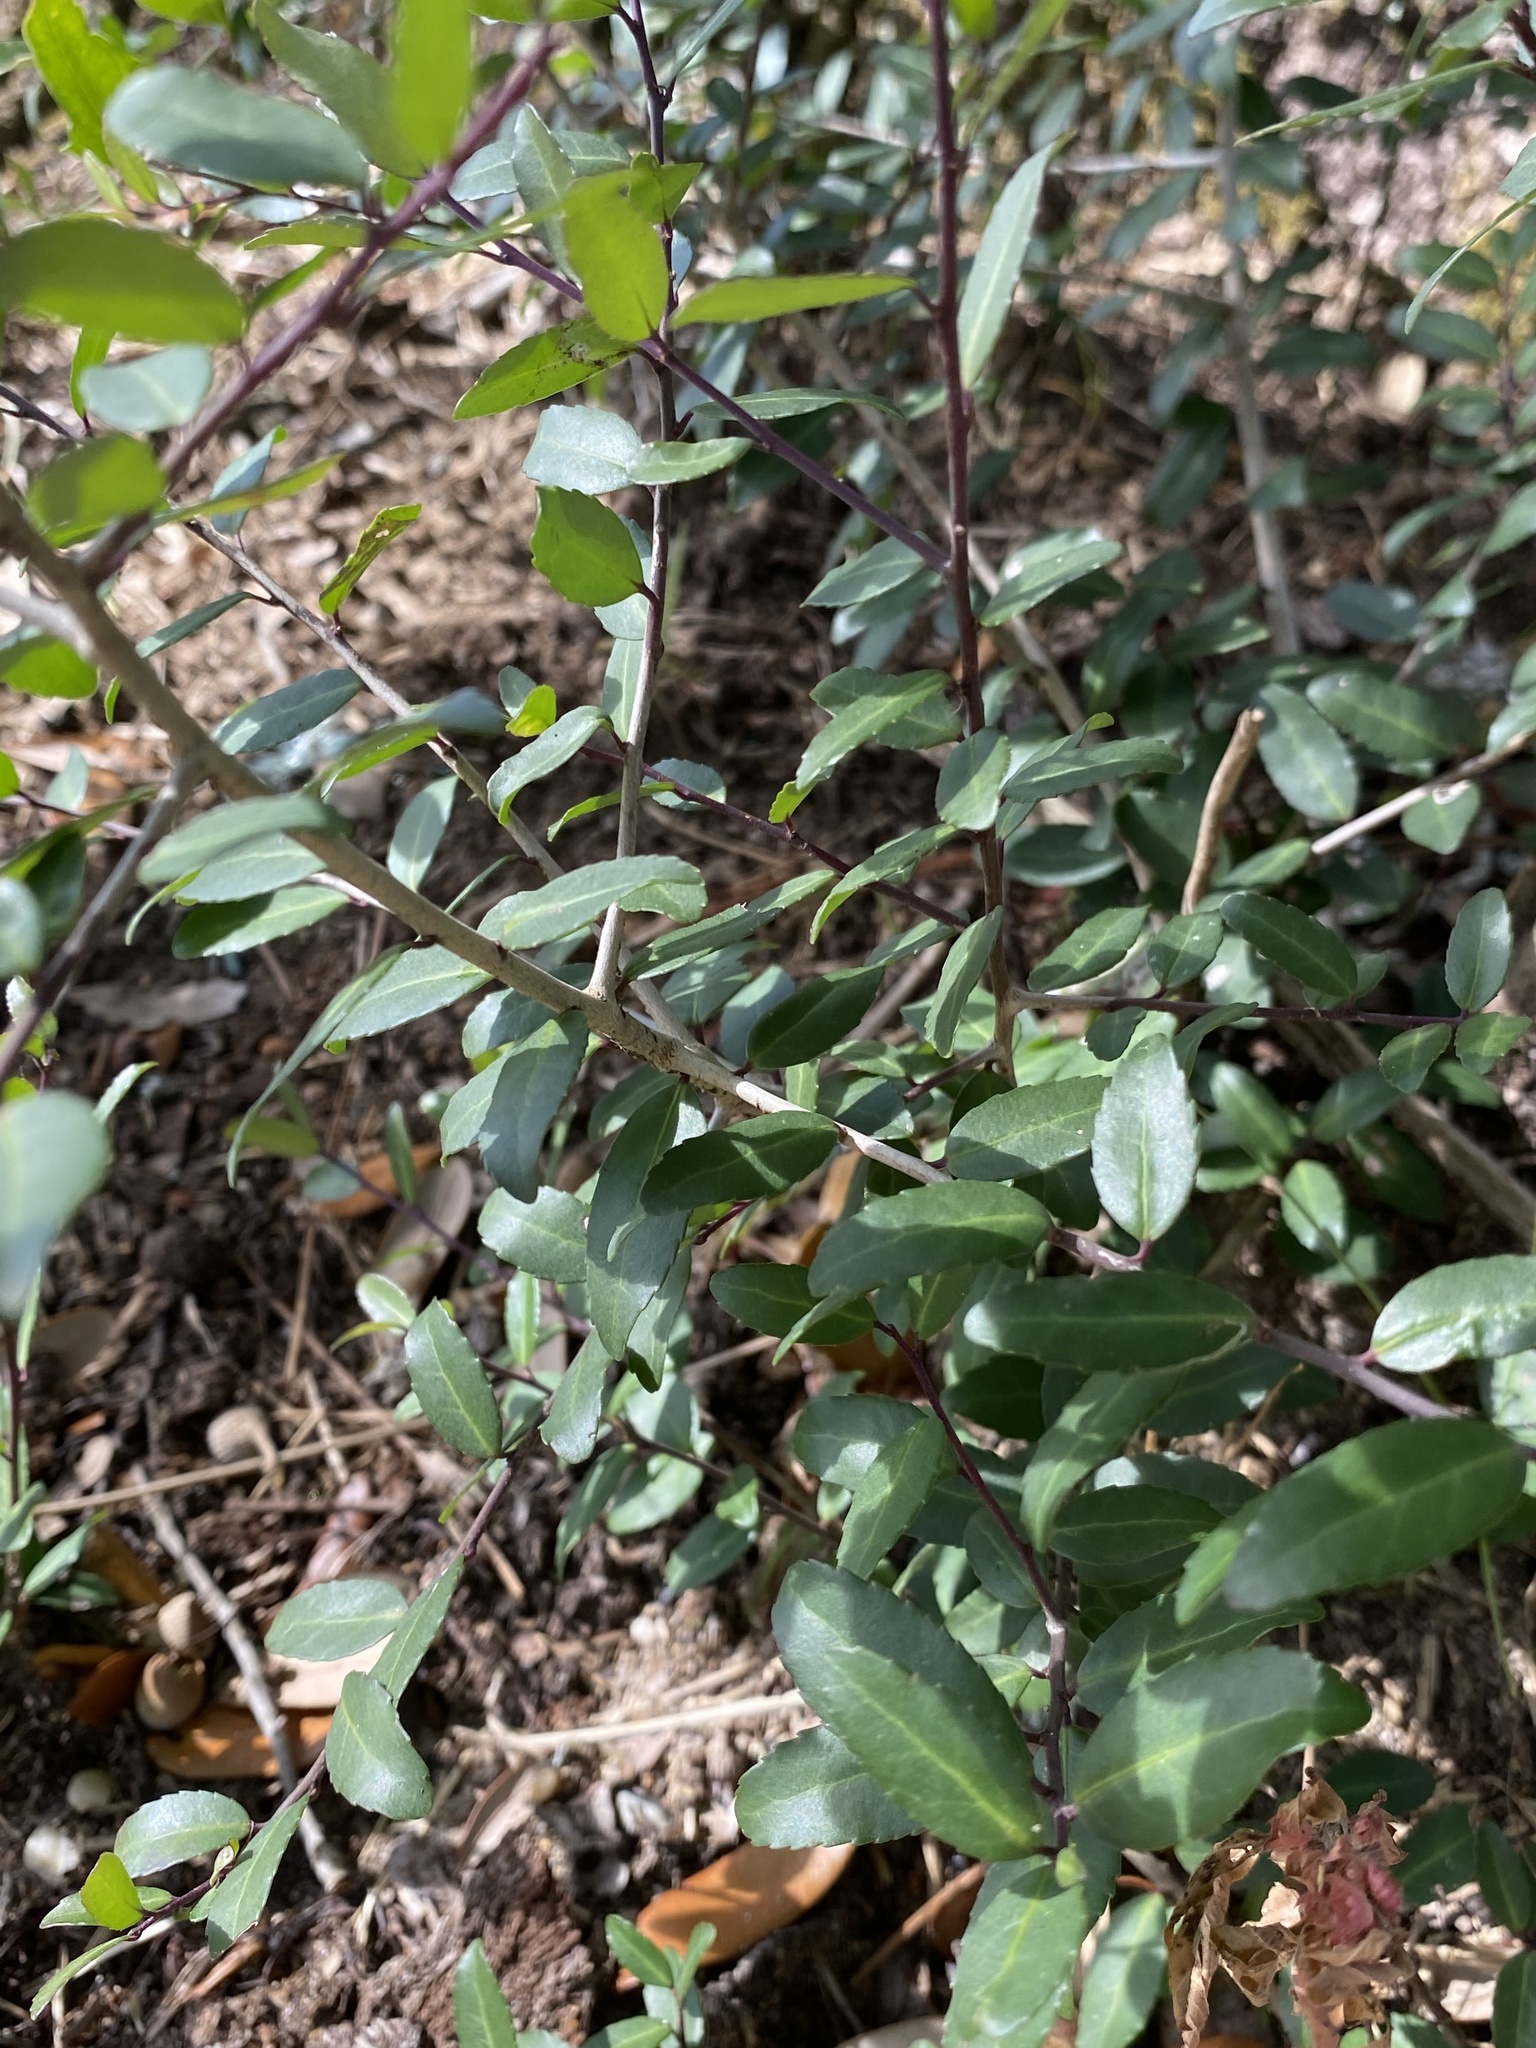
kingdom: Plantae
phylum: Tracheophyta
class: Magnoliopsida
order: Aquifoliales
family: Aquifoliaceae
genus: Ilex
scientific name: Ilex vomitoria
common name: Yaupon holly
